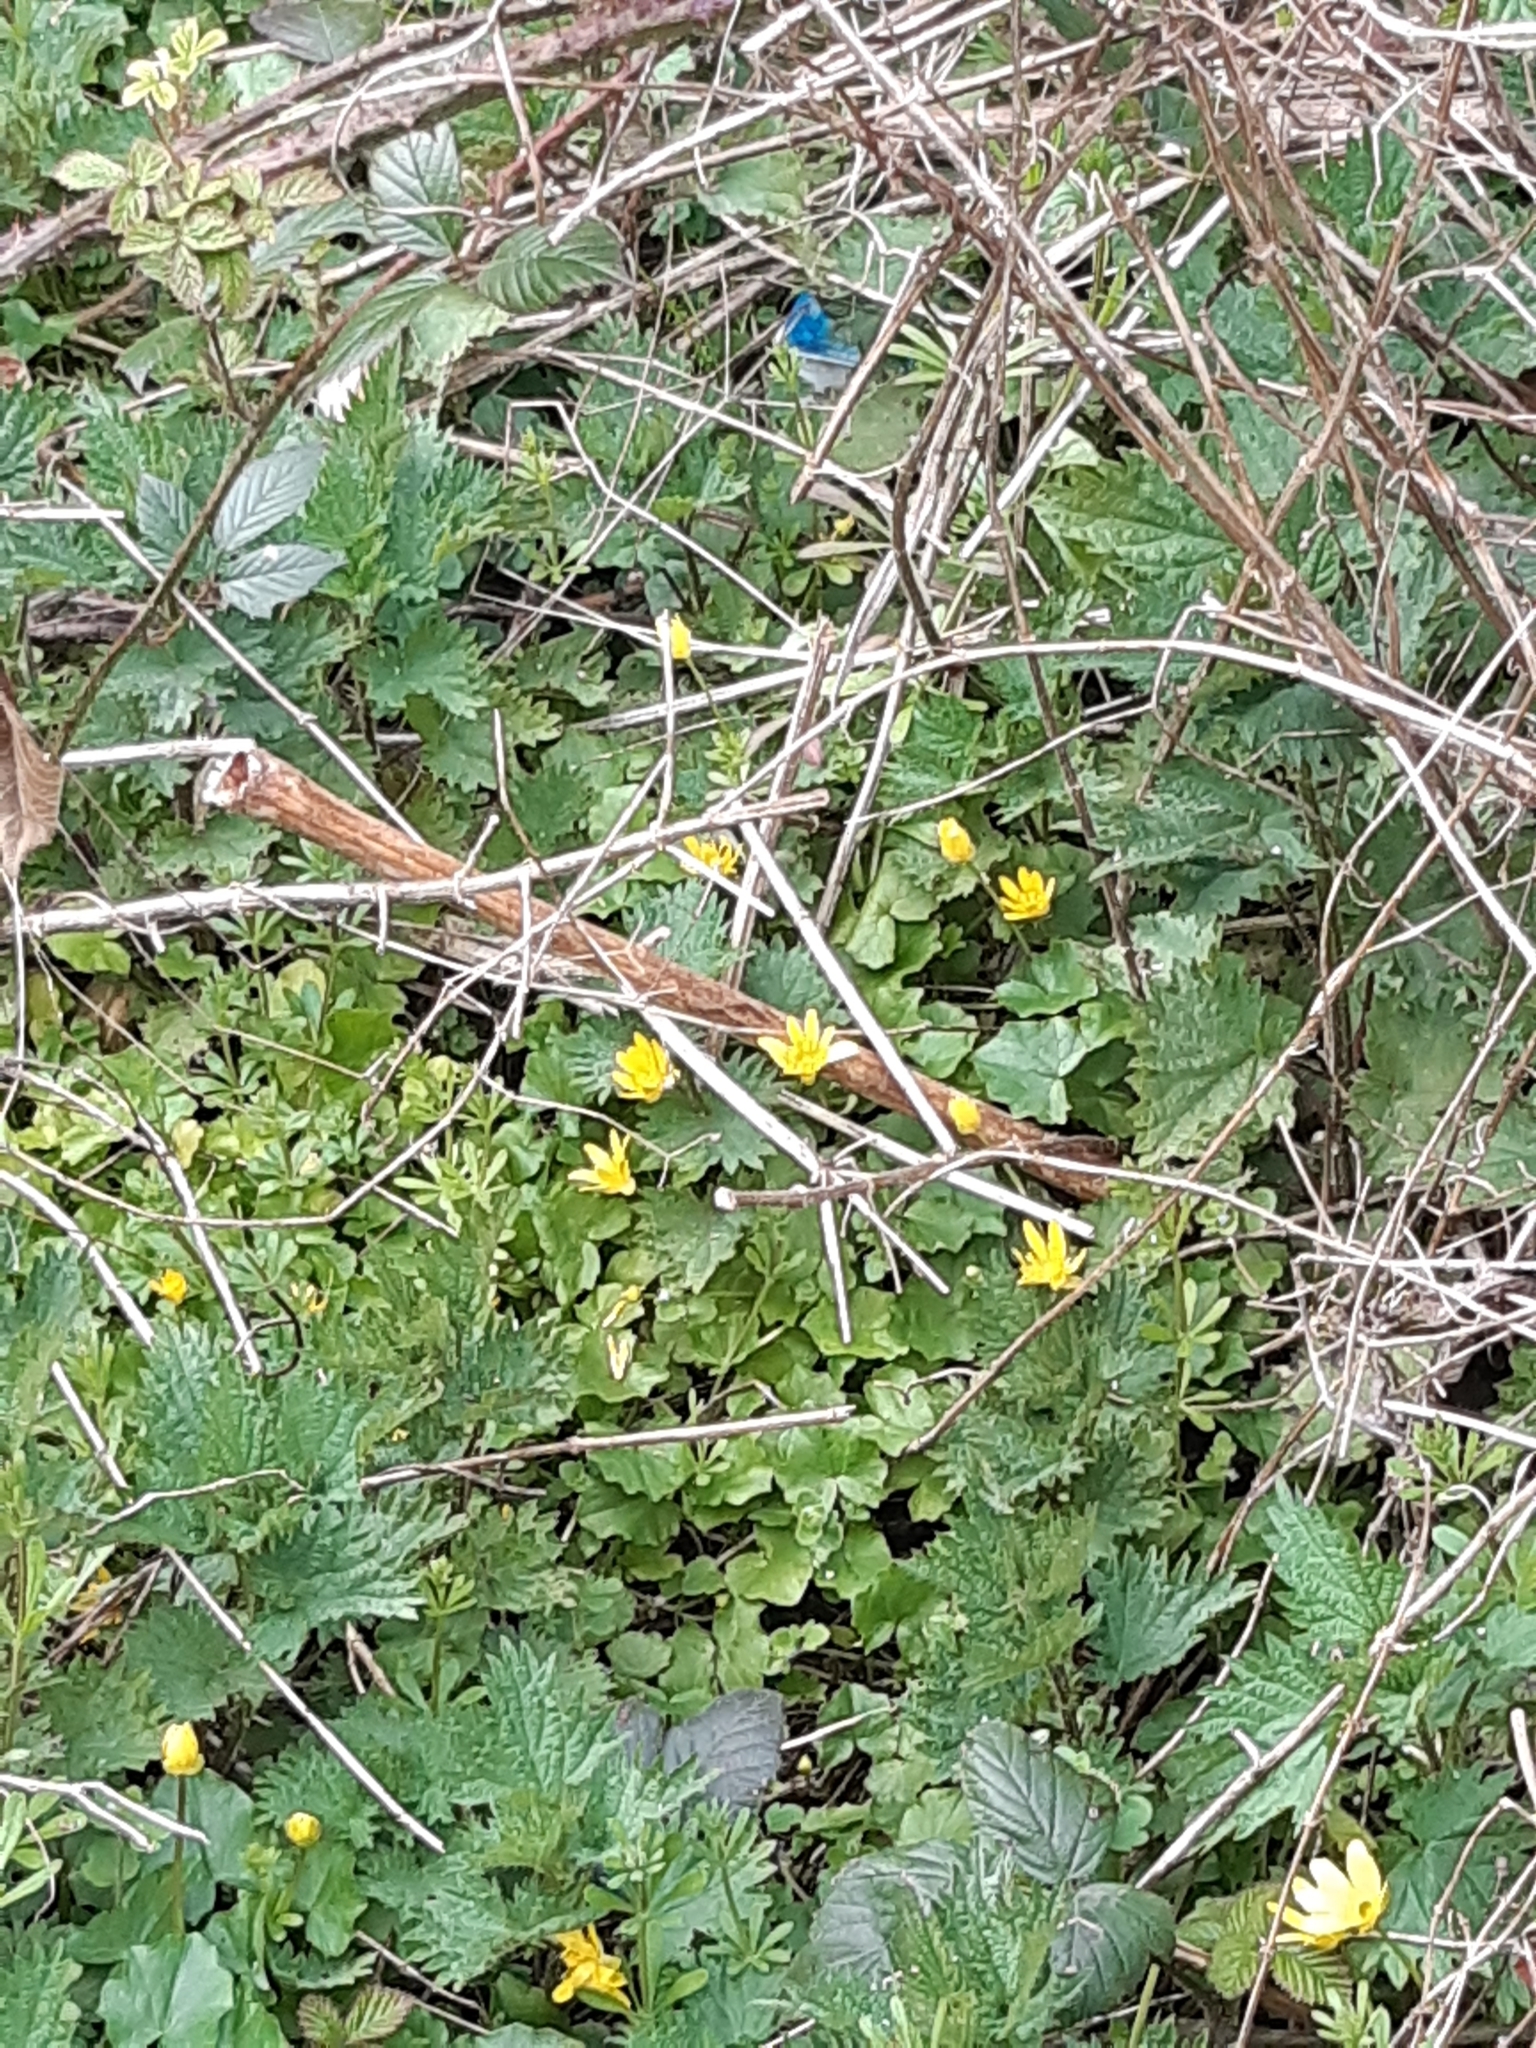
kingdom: Plantae
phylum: Tracheophyta
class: Magnoliopsida
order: Ranunculales
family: Ranunculaceae
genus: Ficaria
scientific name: Ficaria verna
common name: Lesser celandine
